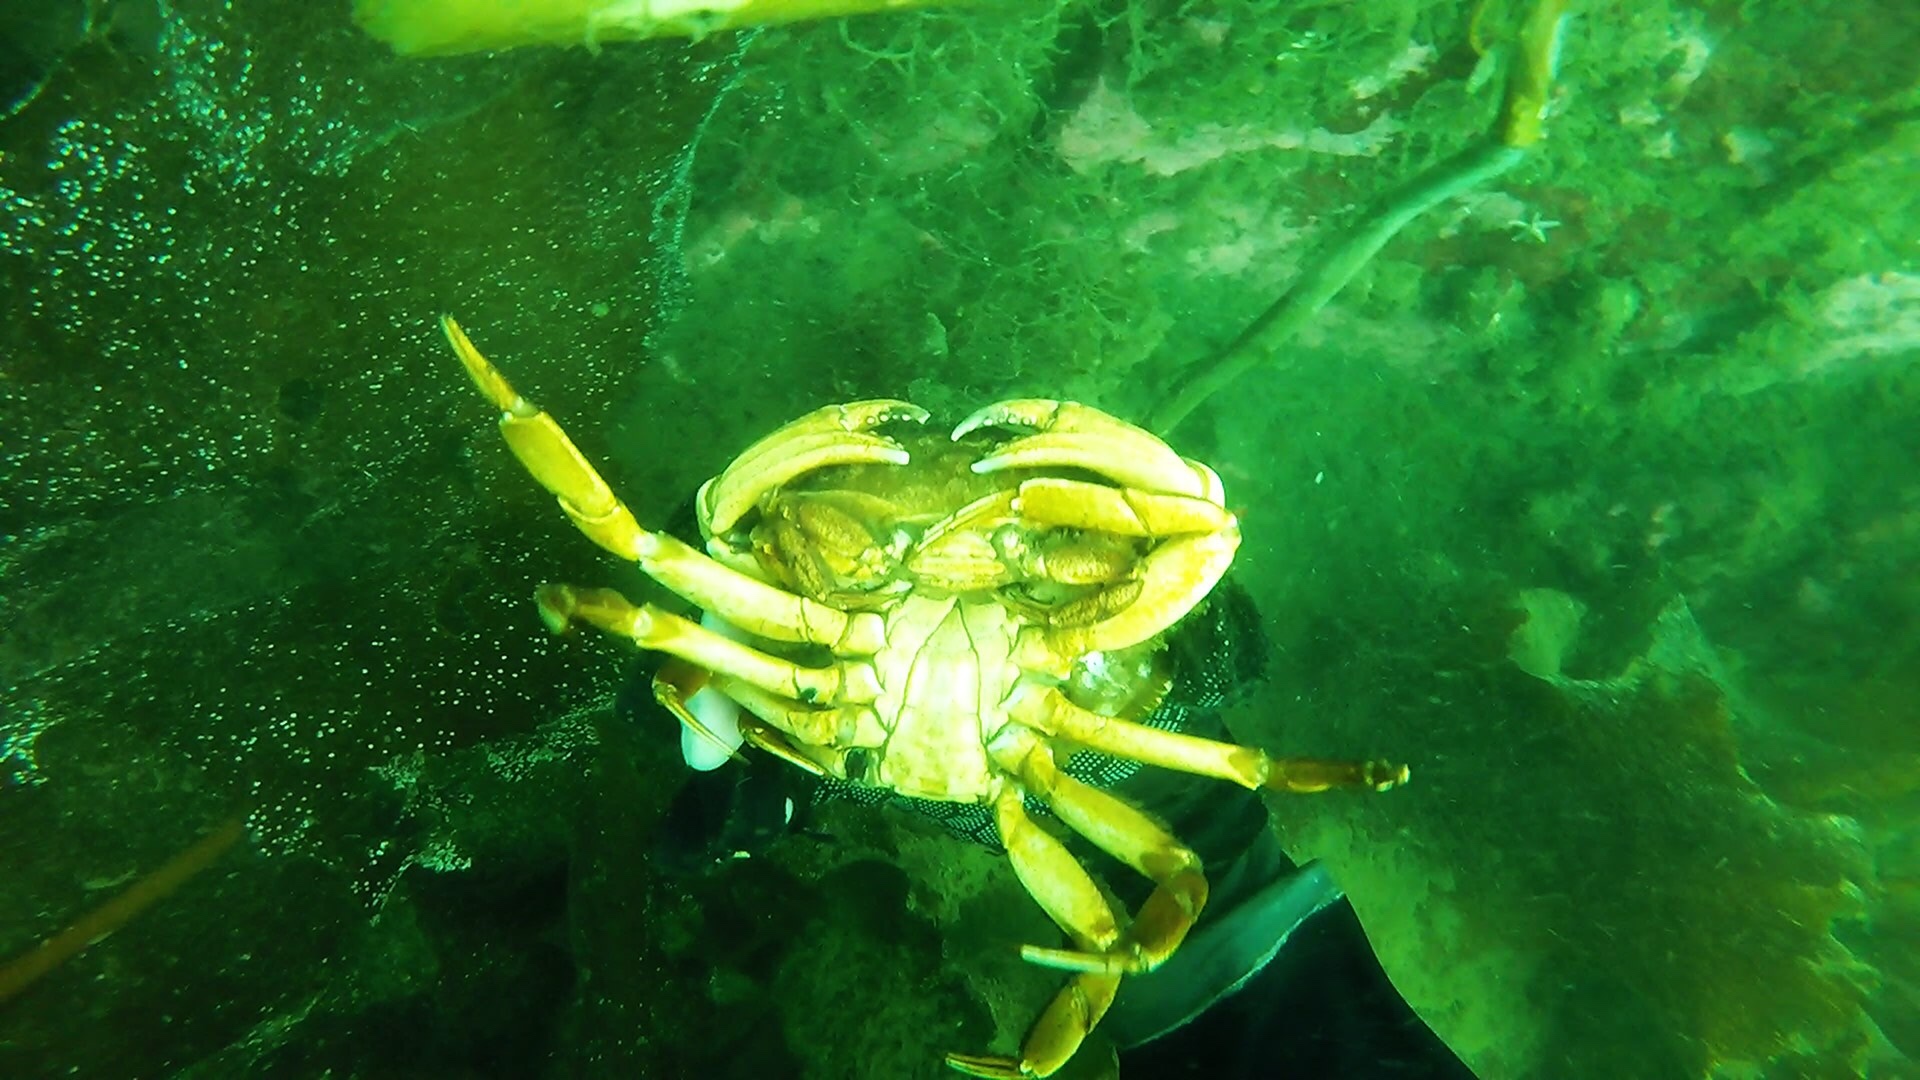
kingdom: Animalia
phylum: Arthropoda
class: Malacostraca
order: Decapoda
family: Cancridae
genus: Cancer
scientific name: Cancer borealis
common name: Jonah crab
